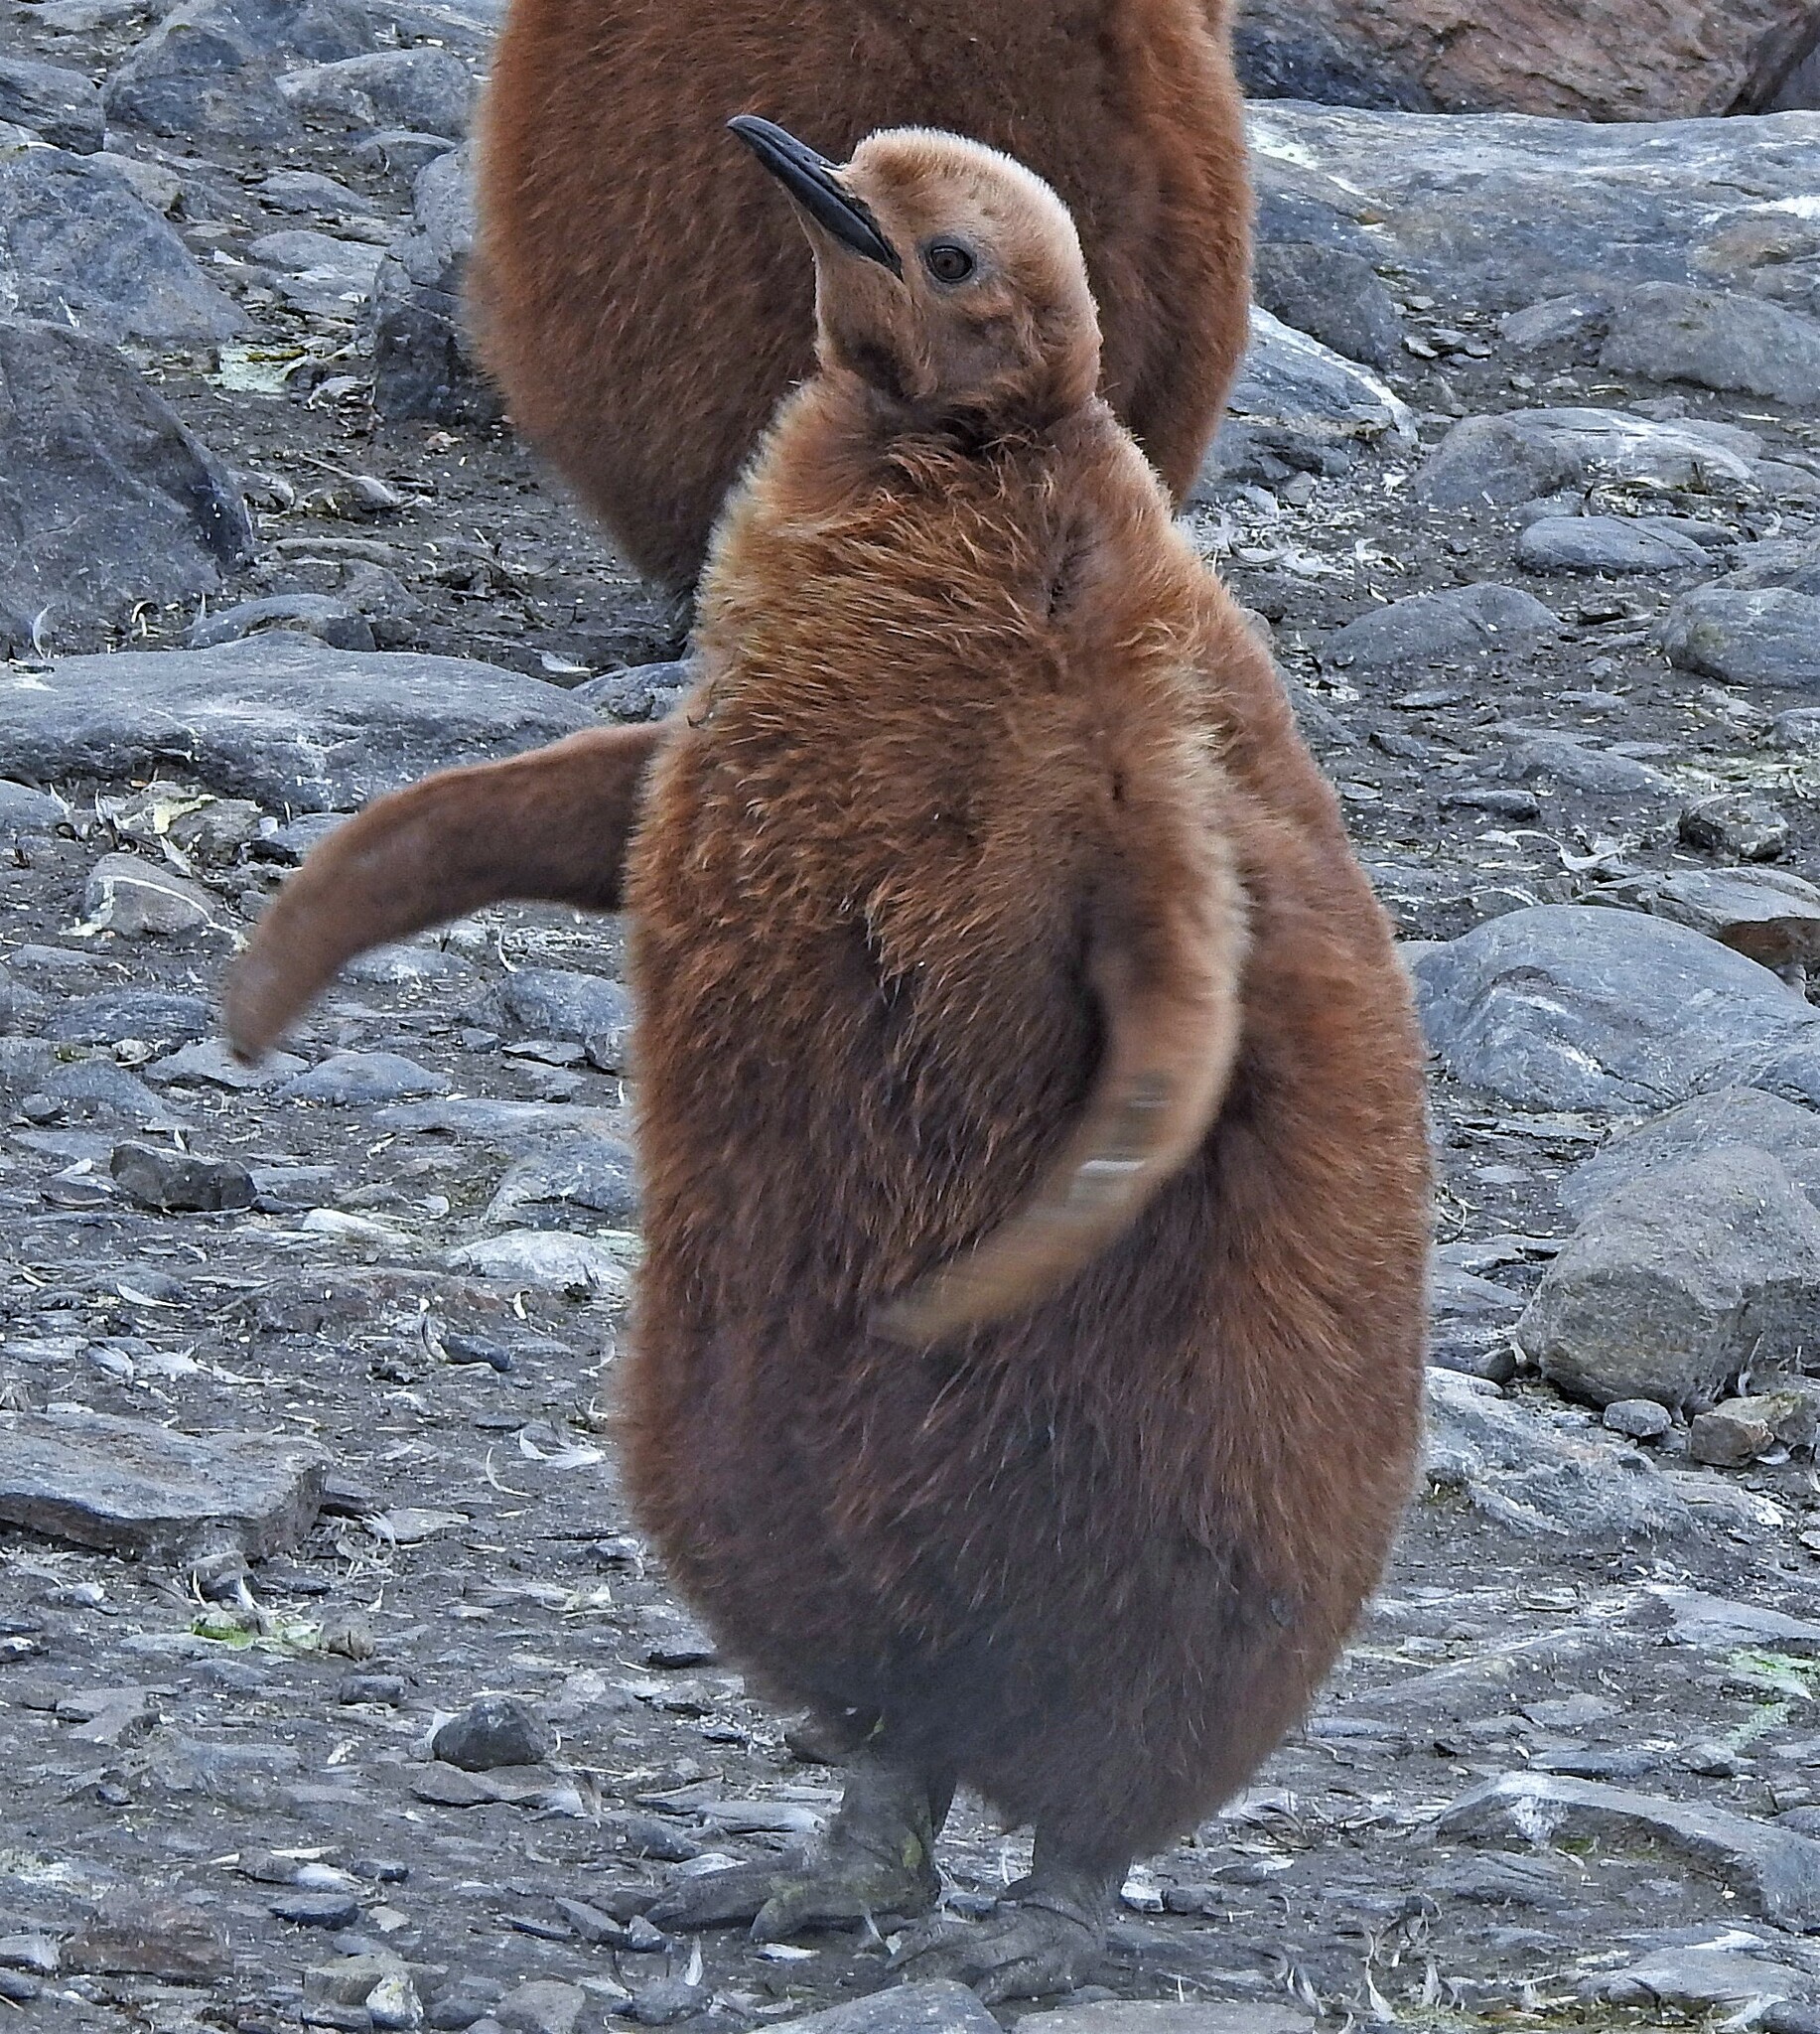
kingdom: Animalia
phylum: Chordata
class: Aves
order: Sphenisciformes
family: Spheniscidae
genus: Aptenodytes
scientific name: Aptenodytes patagonicus
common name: King penguin
